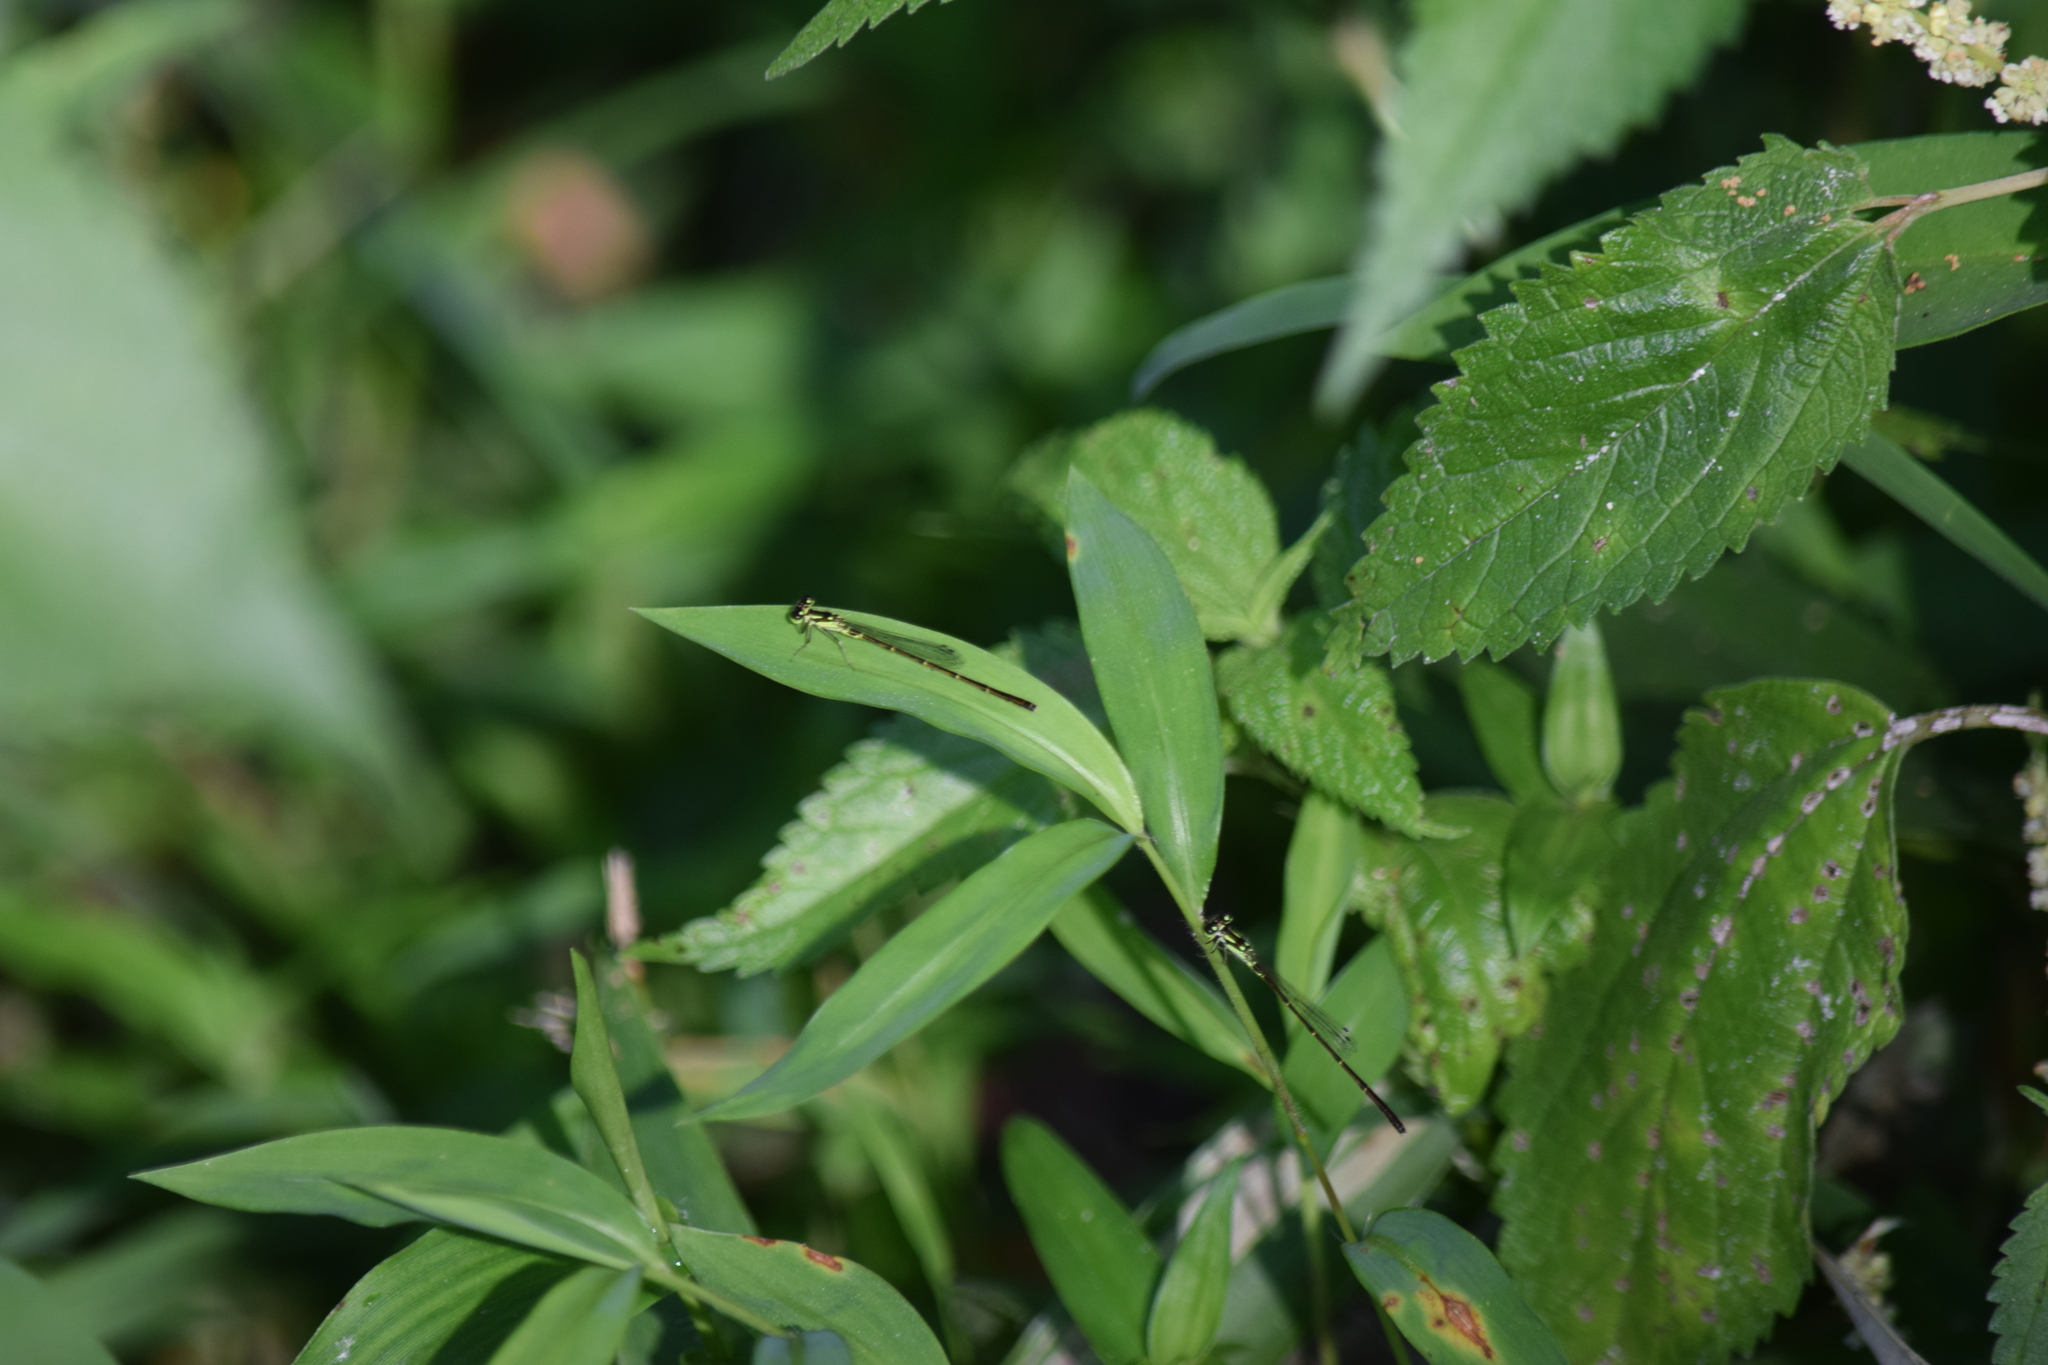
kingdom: Animalia
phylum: Arthropoda
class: Insecta
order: Odonata
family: Coenagrionidae
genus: Ischnura
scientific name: Ischnura posita
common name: Fragile forktail
